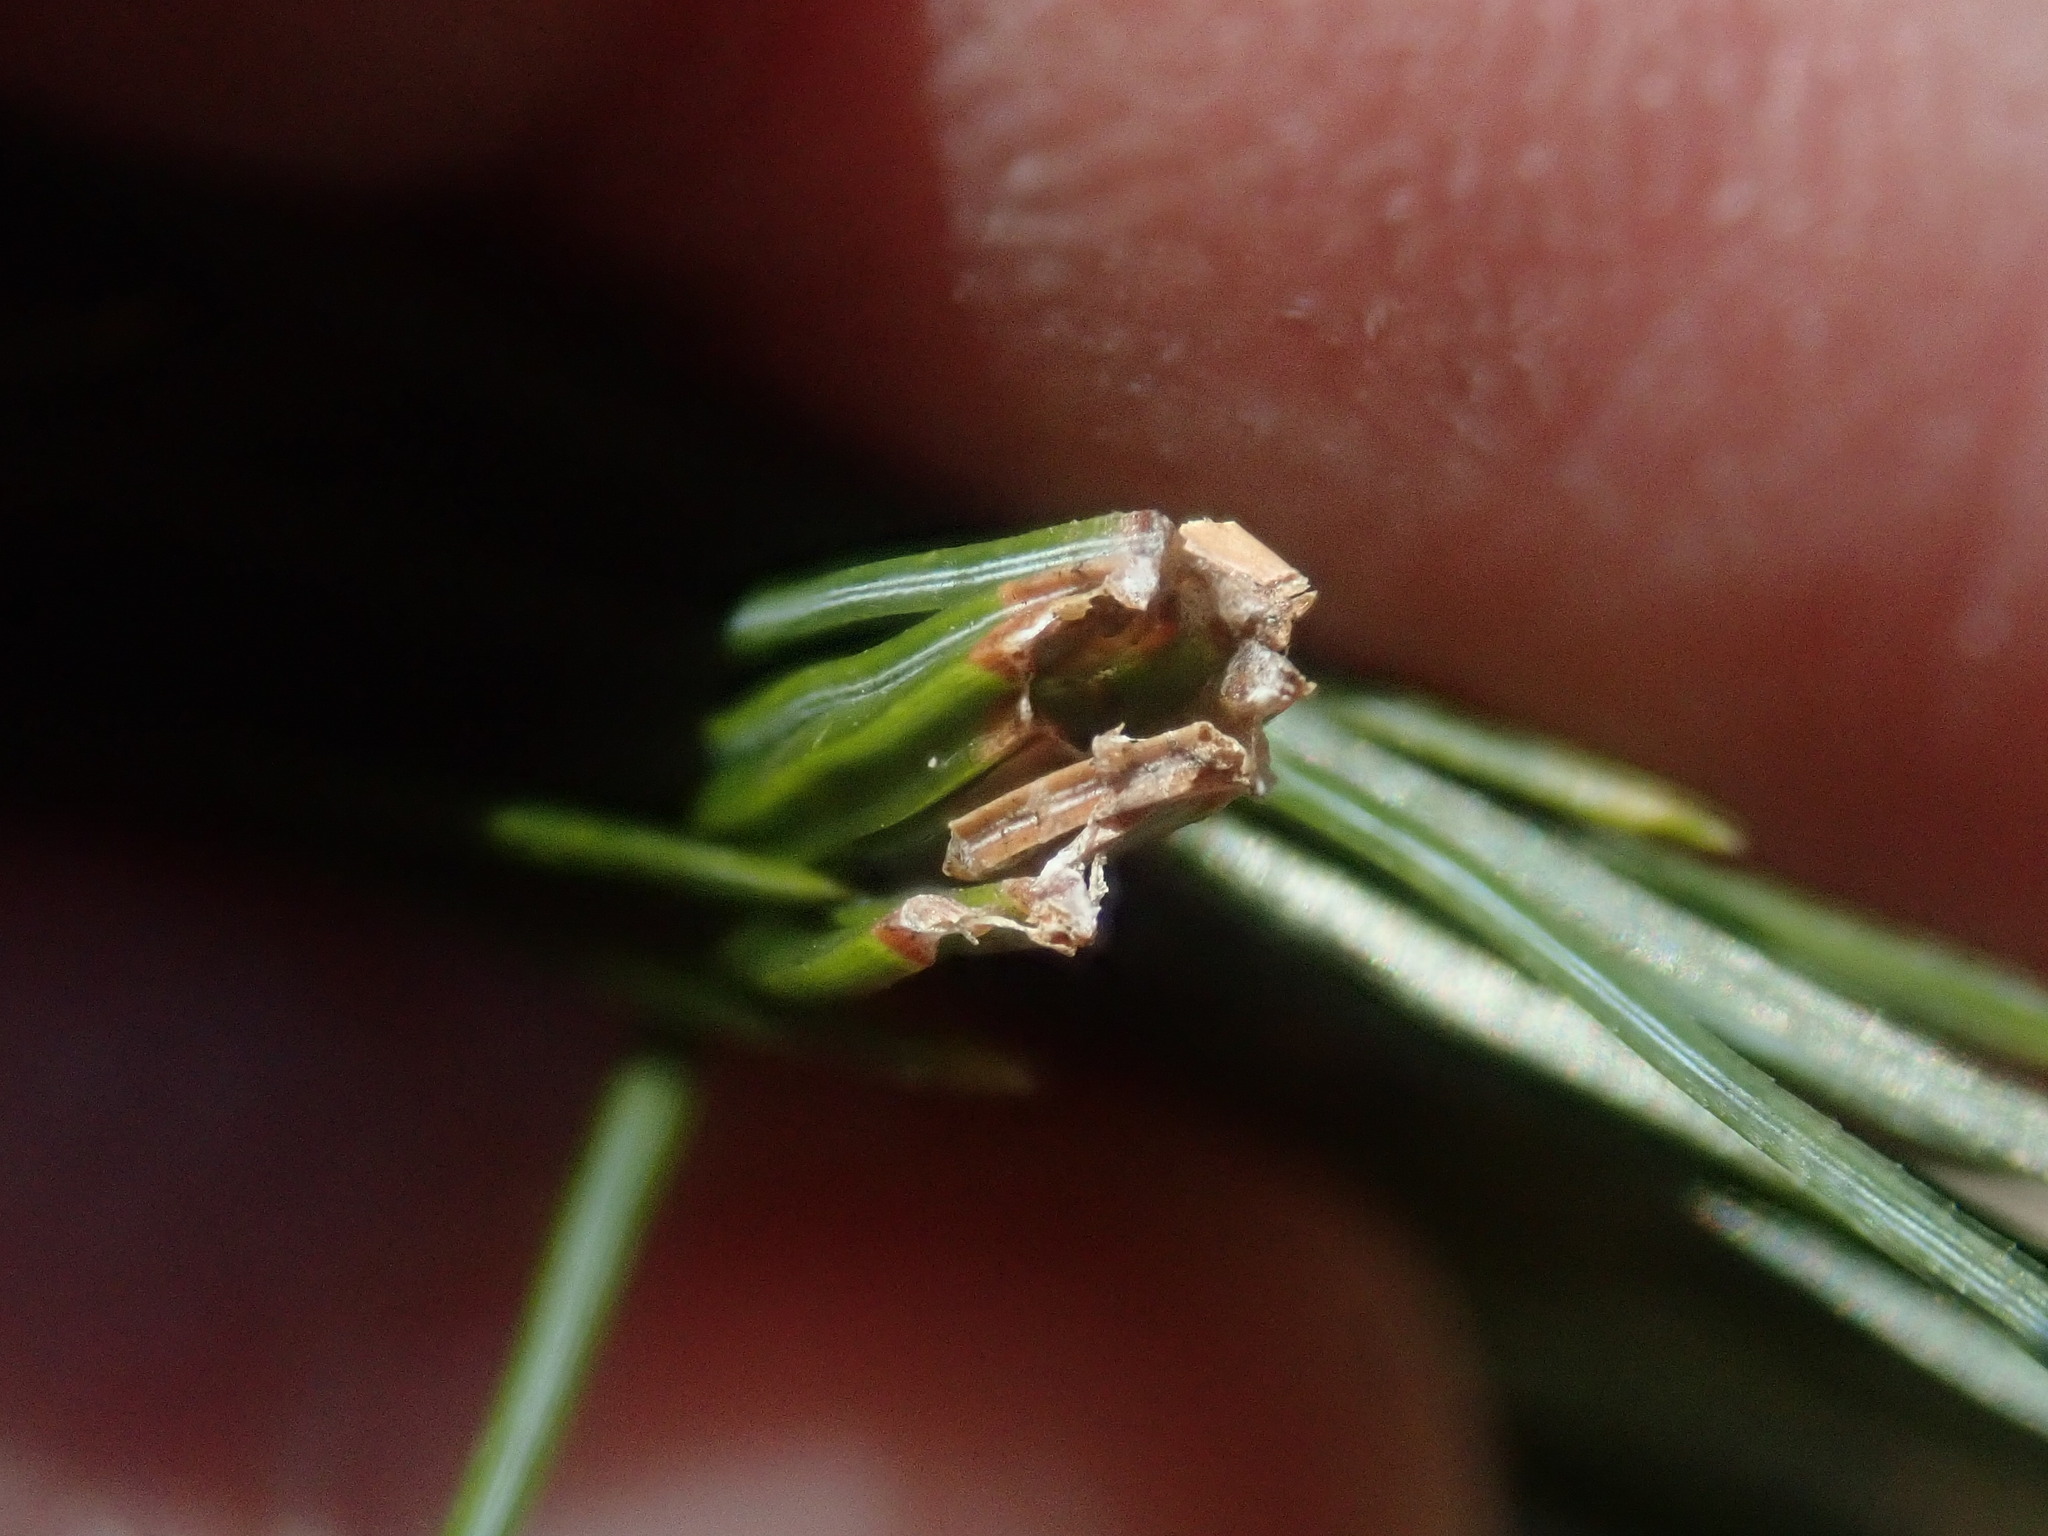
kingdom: Animalia
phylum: Arthropoda
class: Insecta
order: Lepidoptera
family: Tortricidae
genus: Argyrotaenia
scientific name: Argyrotaenia pinatubana
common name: Pine tube moth
